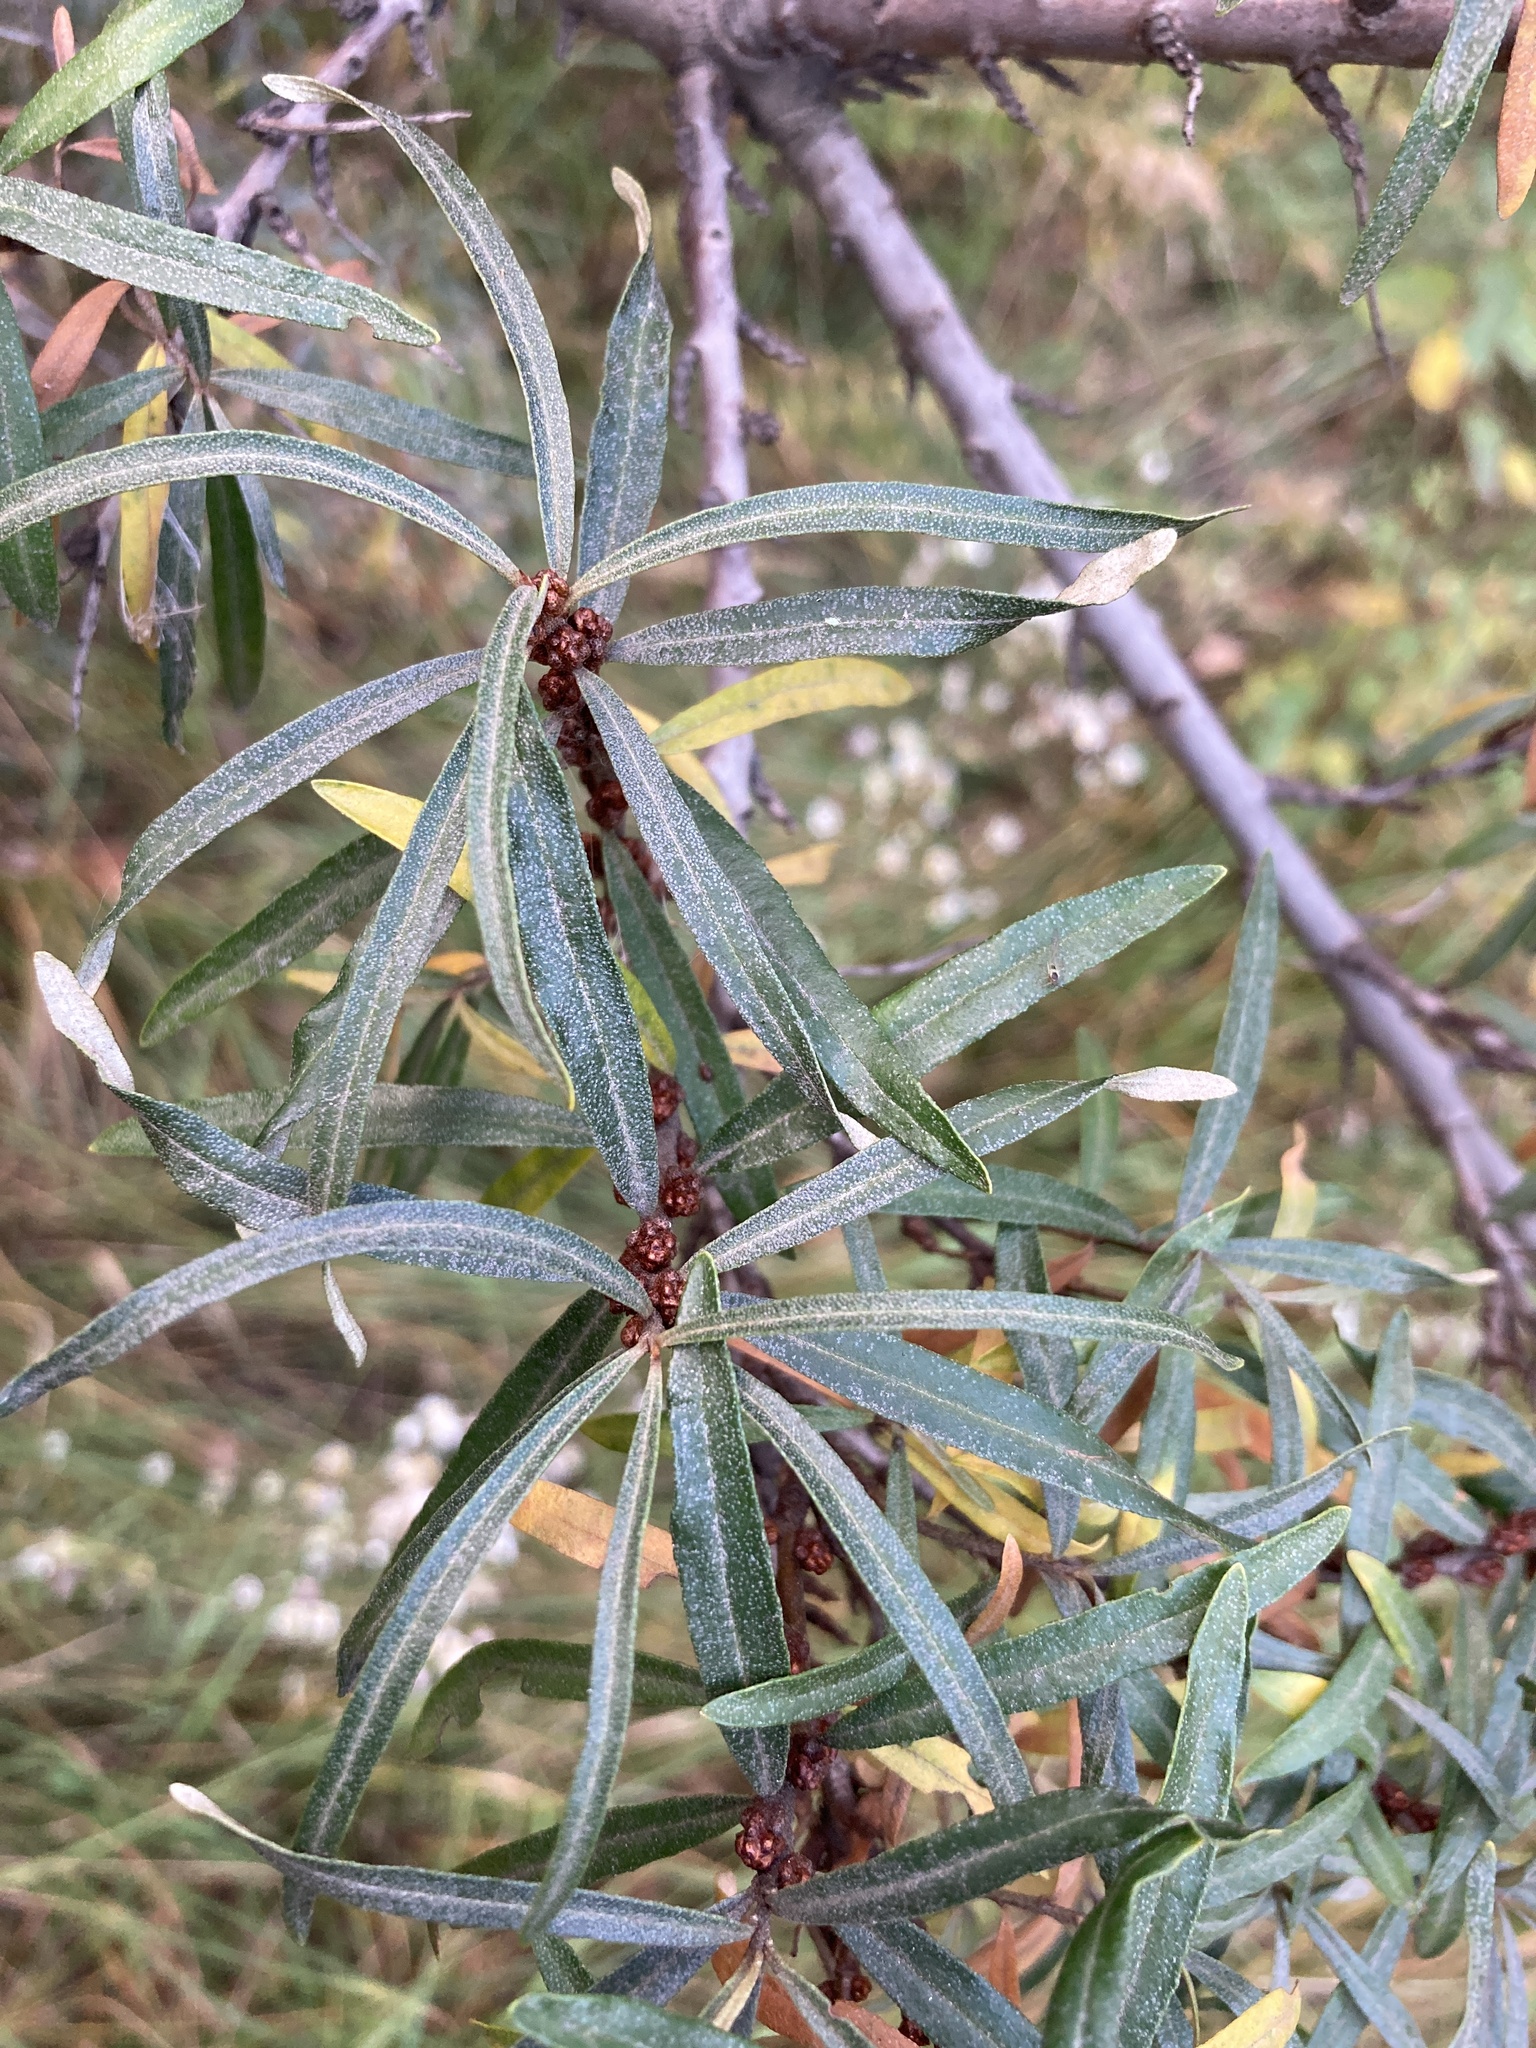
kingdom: Plantae
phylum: Tracheophyta
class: Magnoliopsida
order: Rosales
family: Elaeagnaceae
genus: Hippophae
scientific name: Hippophae rhamnoides
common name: Sea-buckthorn
